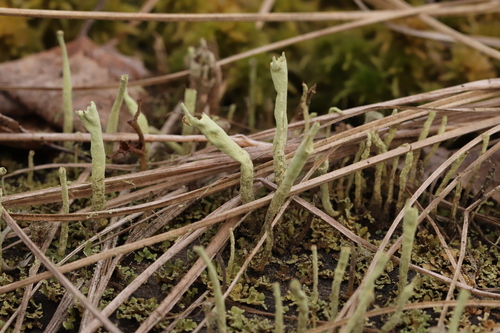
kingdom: Fungi
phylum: Ascomycota
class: Lecanoromycetes
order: Lecanorales
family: Cladoniaceae
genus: Cladonia
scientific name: Cladonia sulphurina
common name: Greater sulphur-cup lichen
